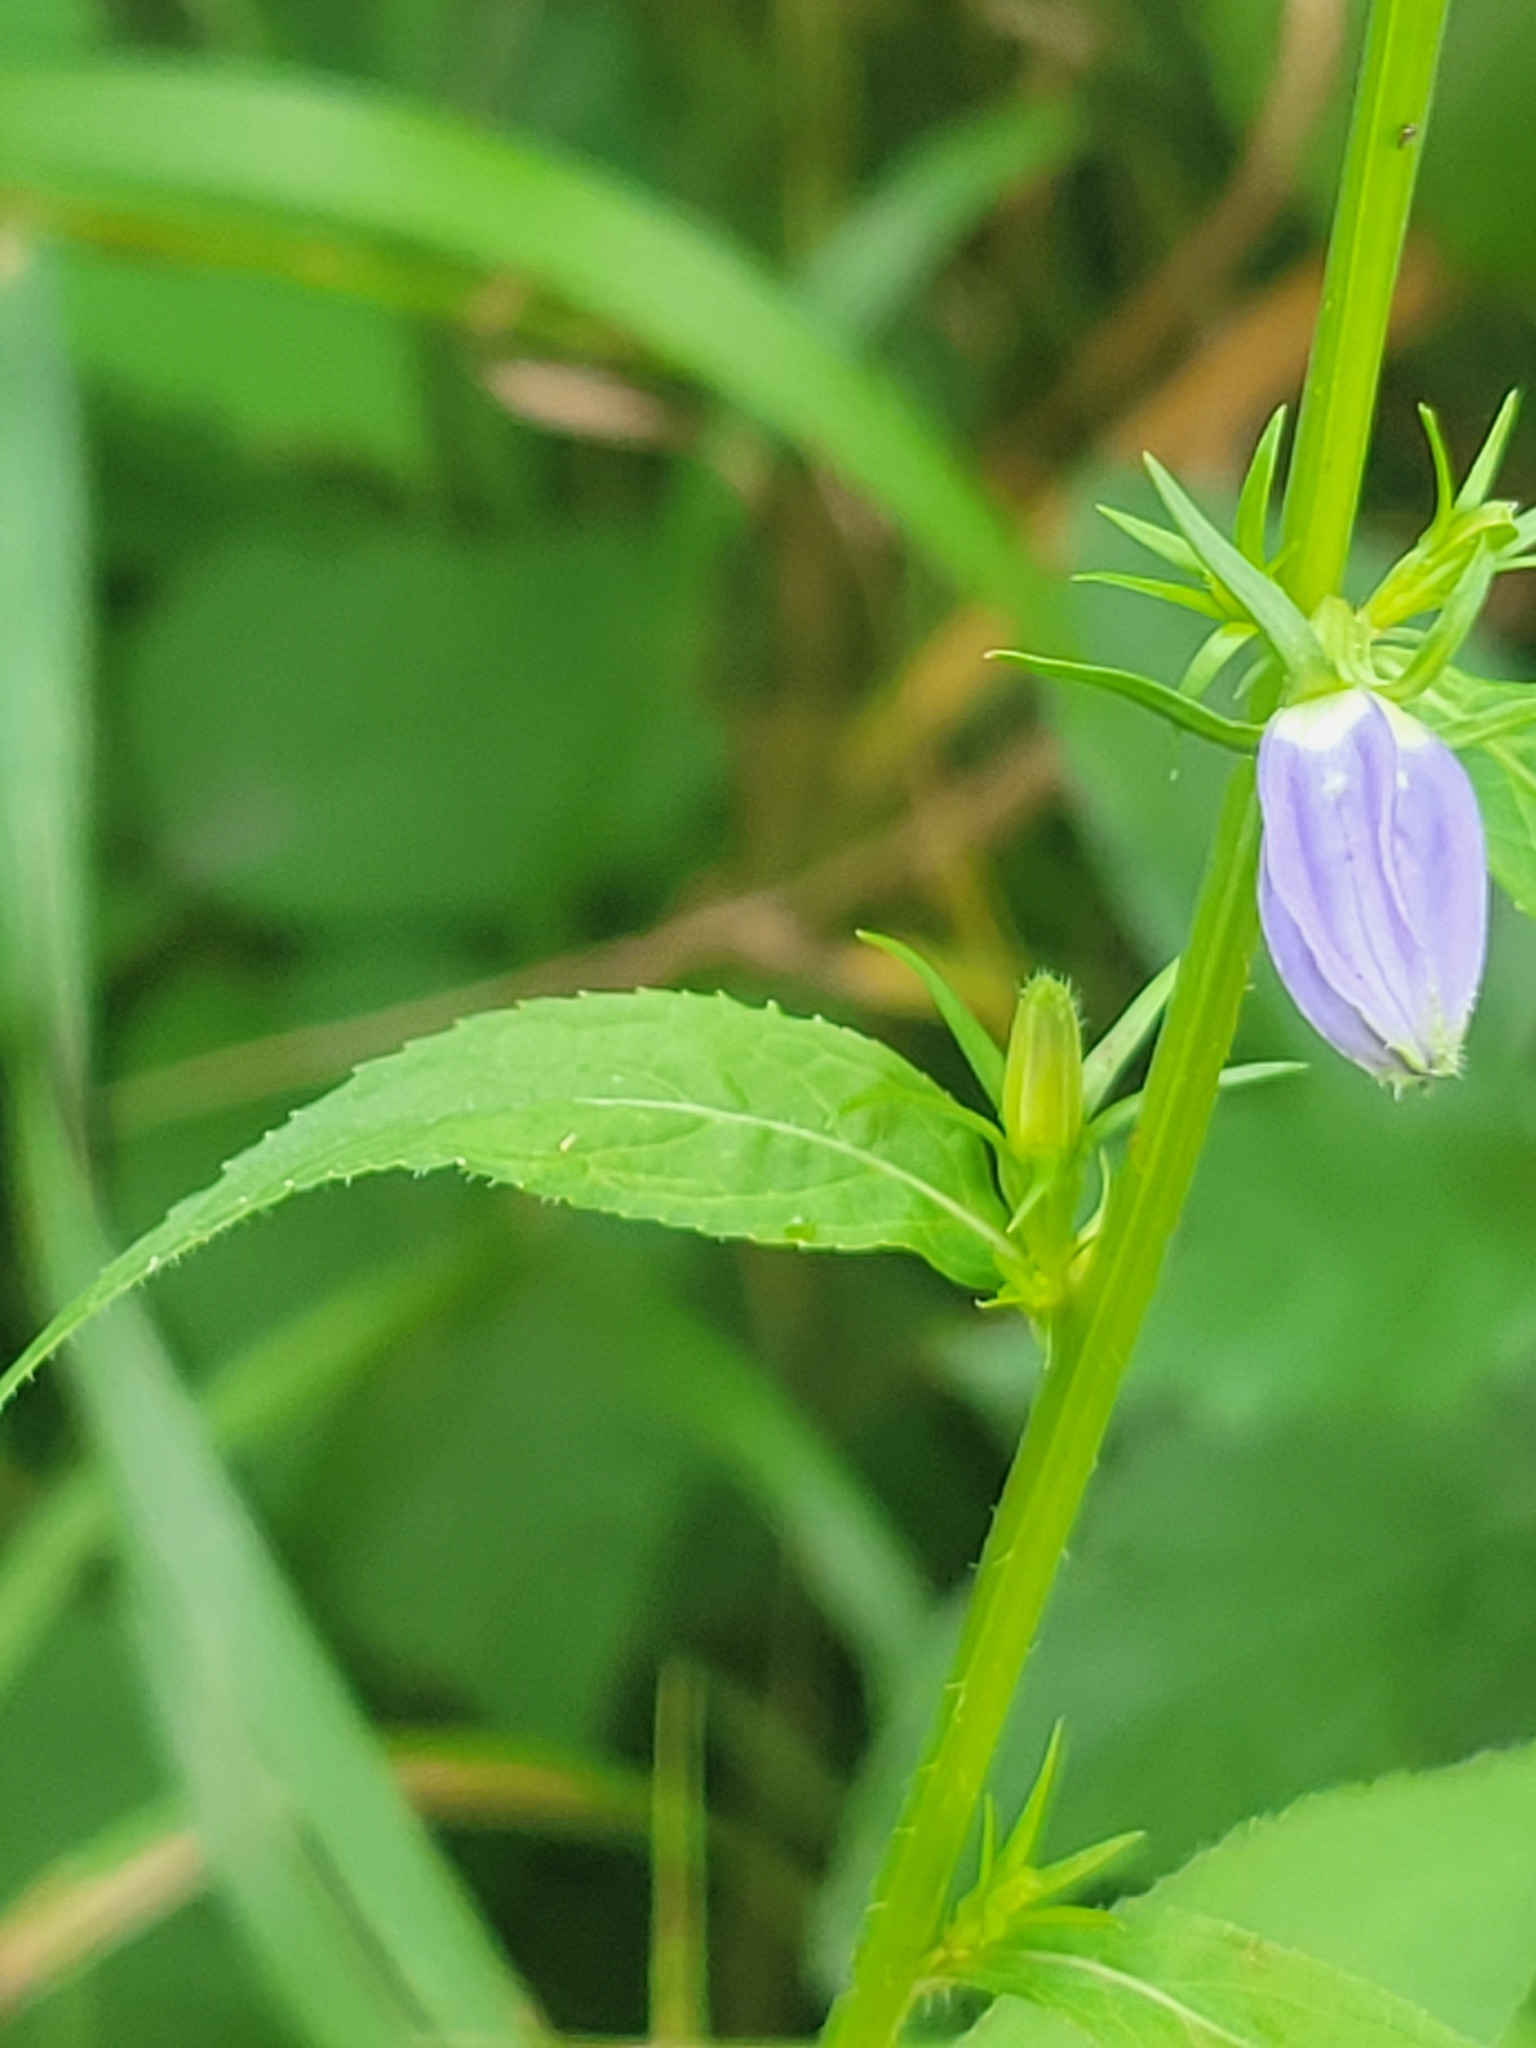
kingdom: Plantae
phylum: Tracheophyta
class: Magnoliopsida
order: Asterales
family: Campanulaceae
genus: Campanulastrum
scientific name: Campanulastrum americanum
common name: American bellflower
